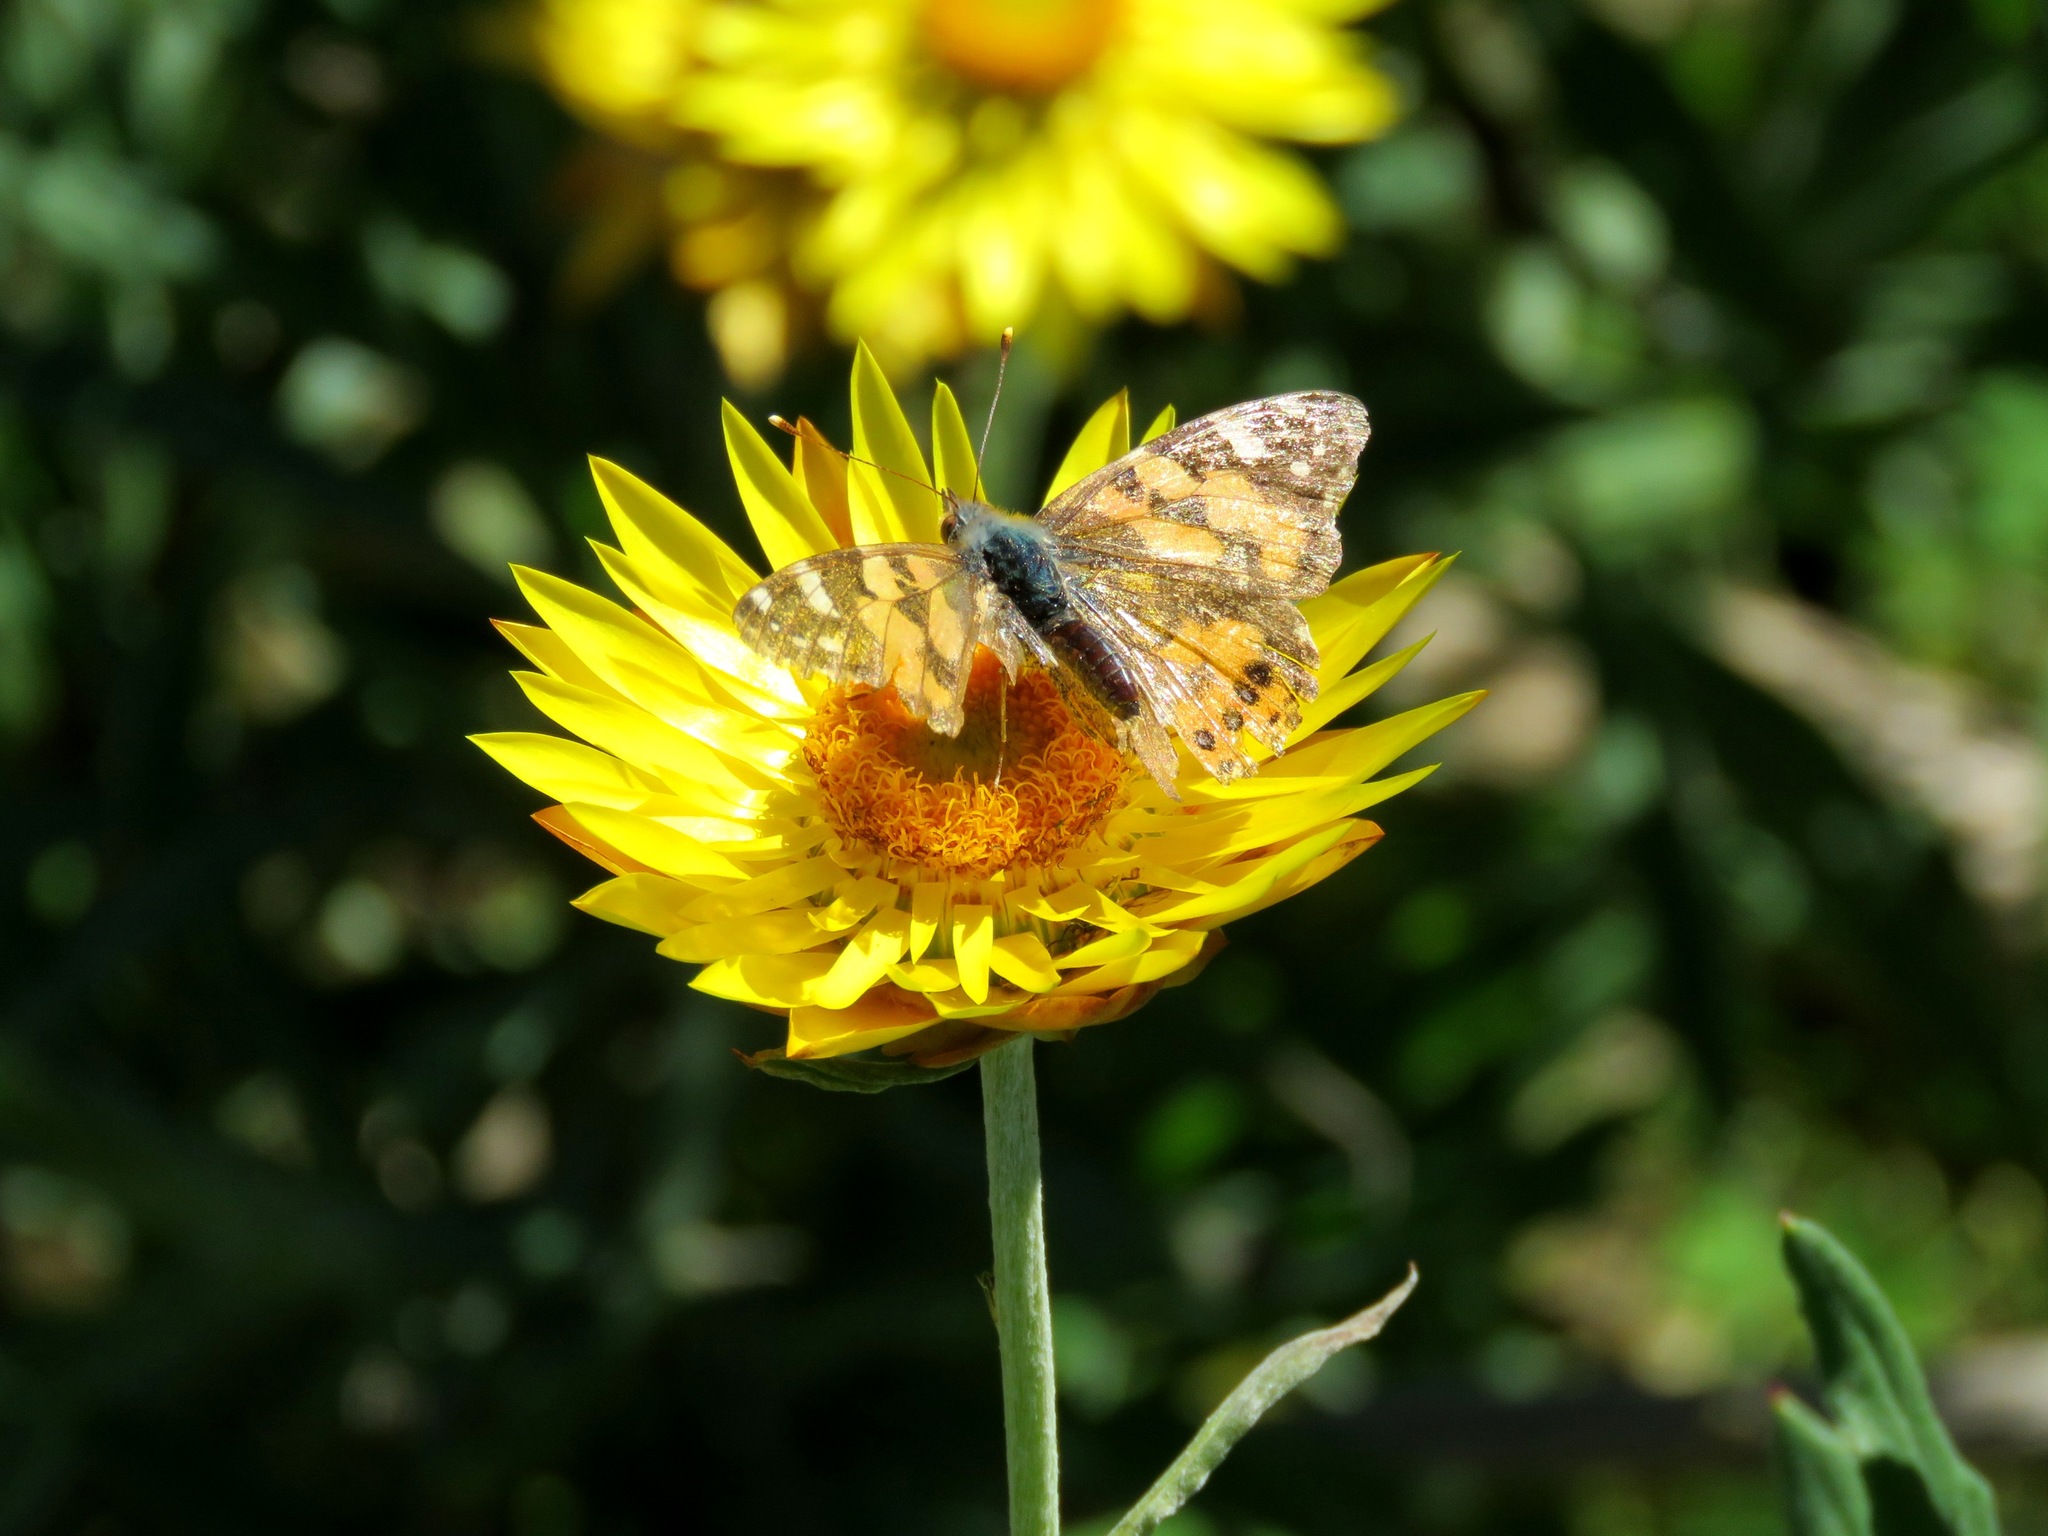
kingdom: Animalia
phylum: Arthropoda
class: Insecta
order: Lepidoptera
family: Nymphalidae
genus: Vanessa
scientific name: Vanessa kershawi
